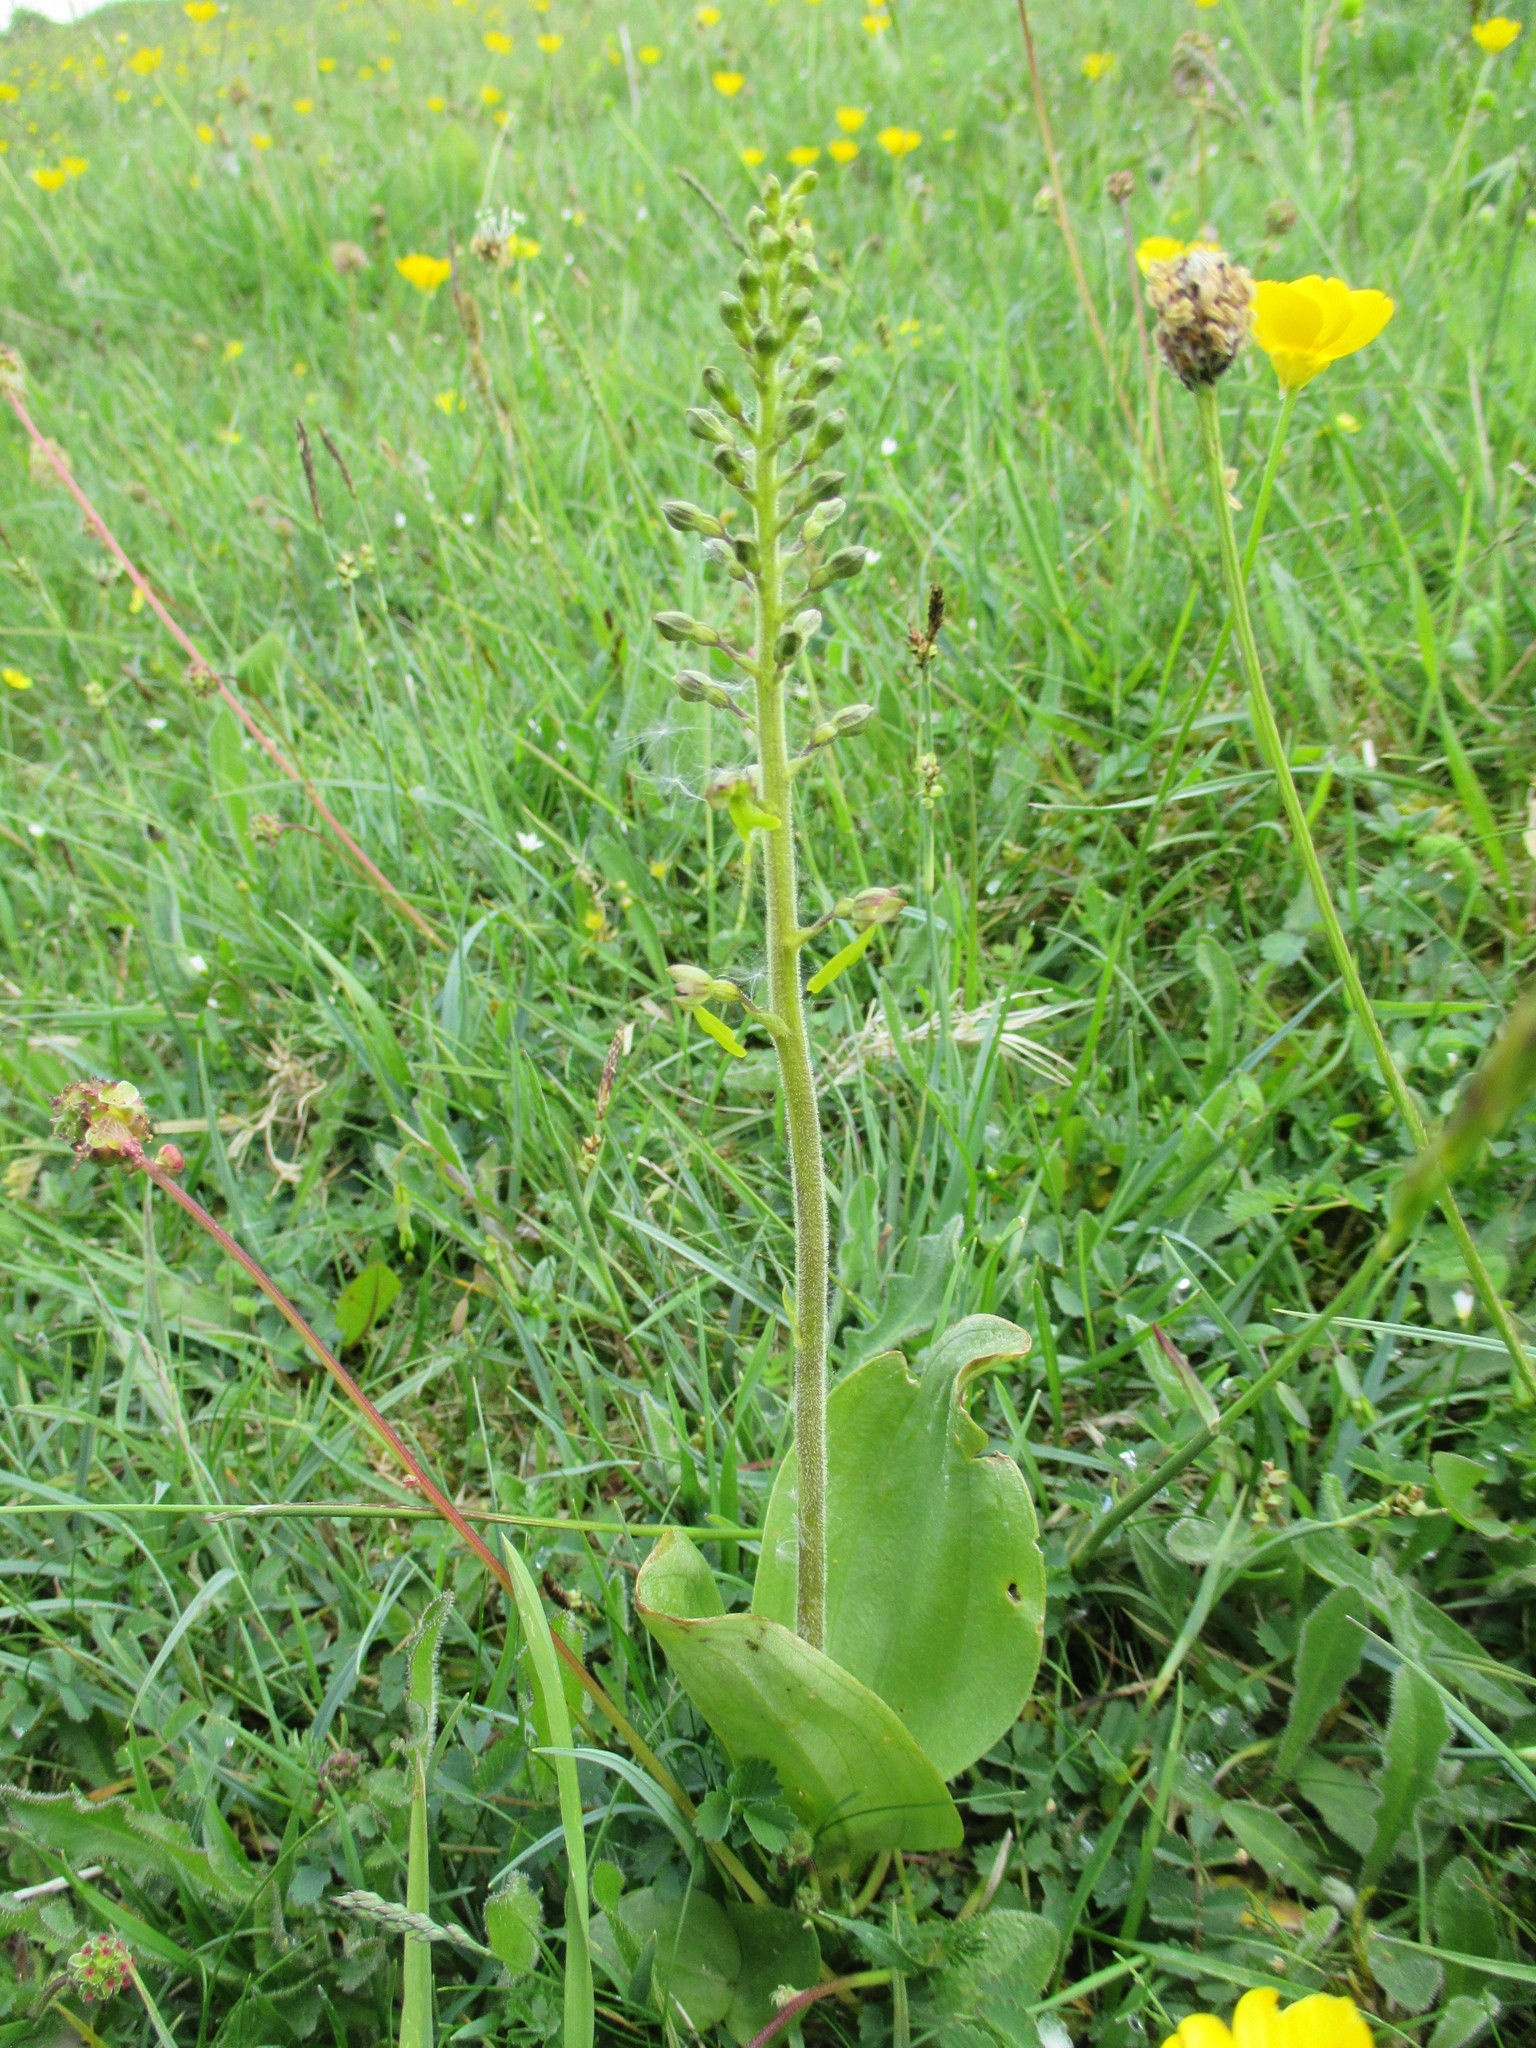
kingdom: Plantae
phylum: Tracheophyta
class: Liliopsida
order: Asparagales
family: Orchidaceae
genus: Neottia
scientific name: Neottia ovata
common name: Common twayblade
